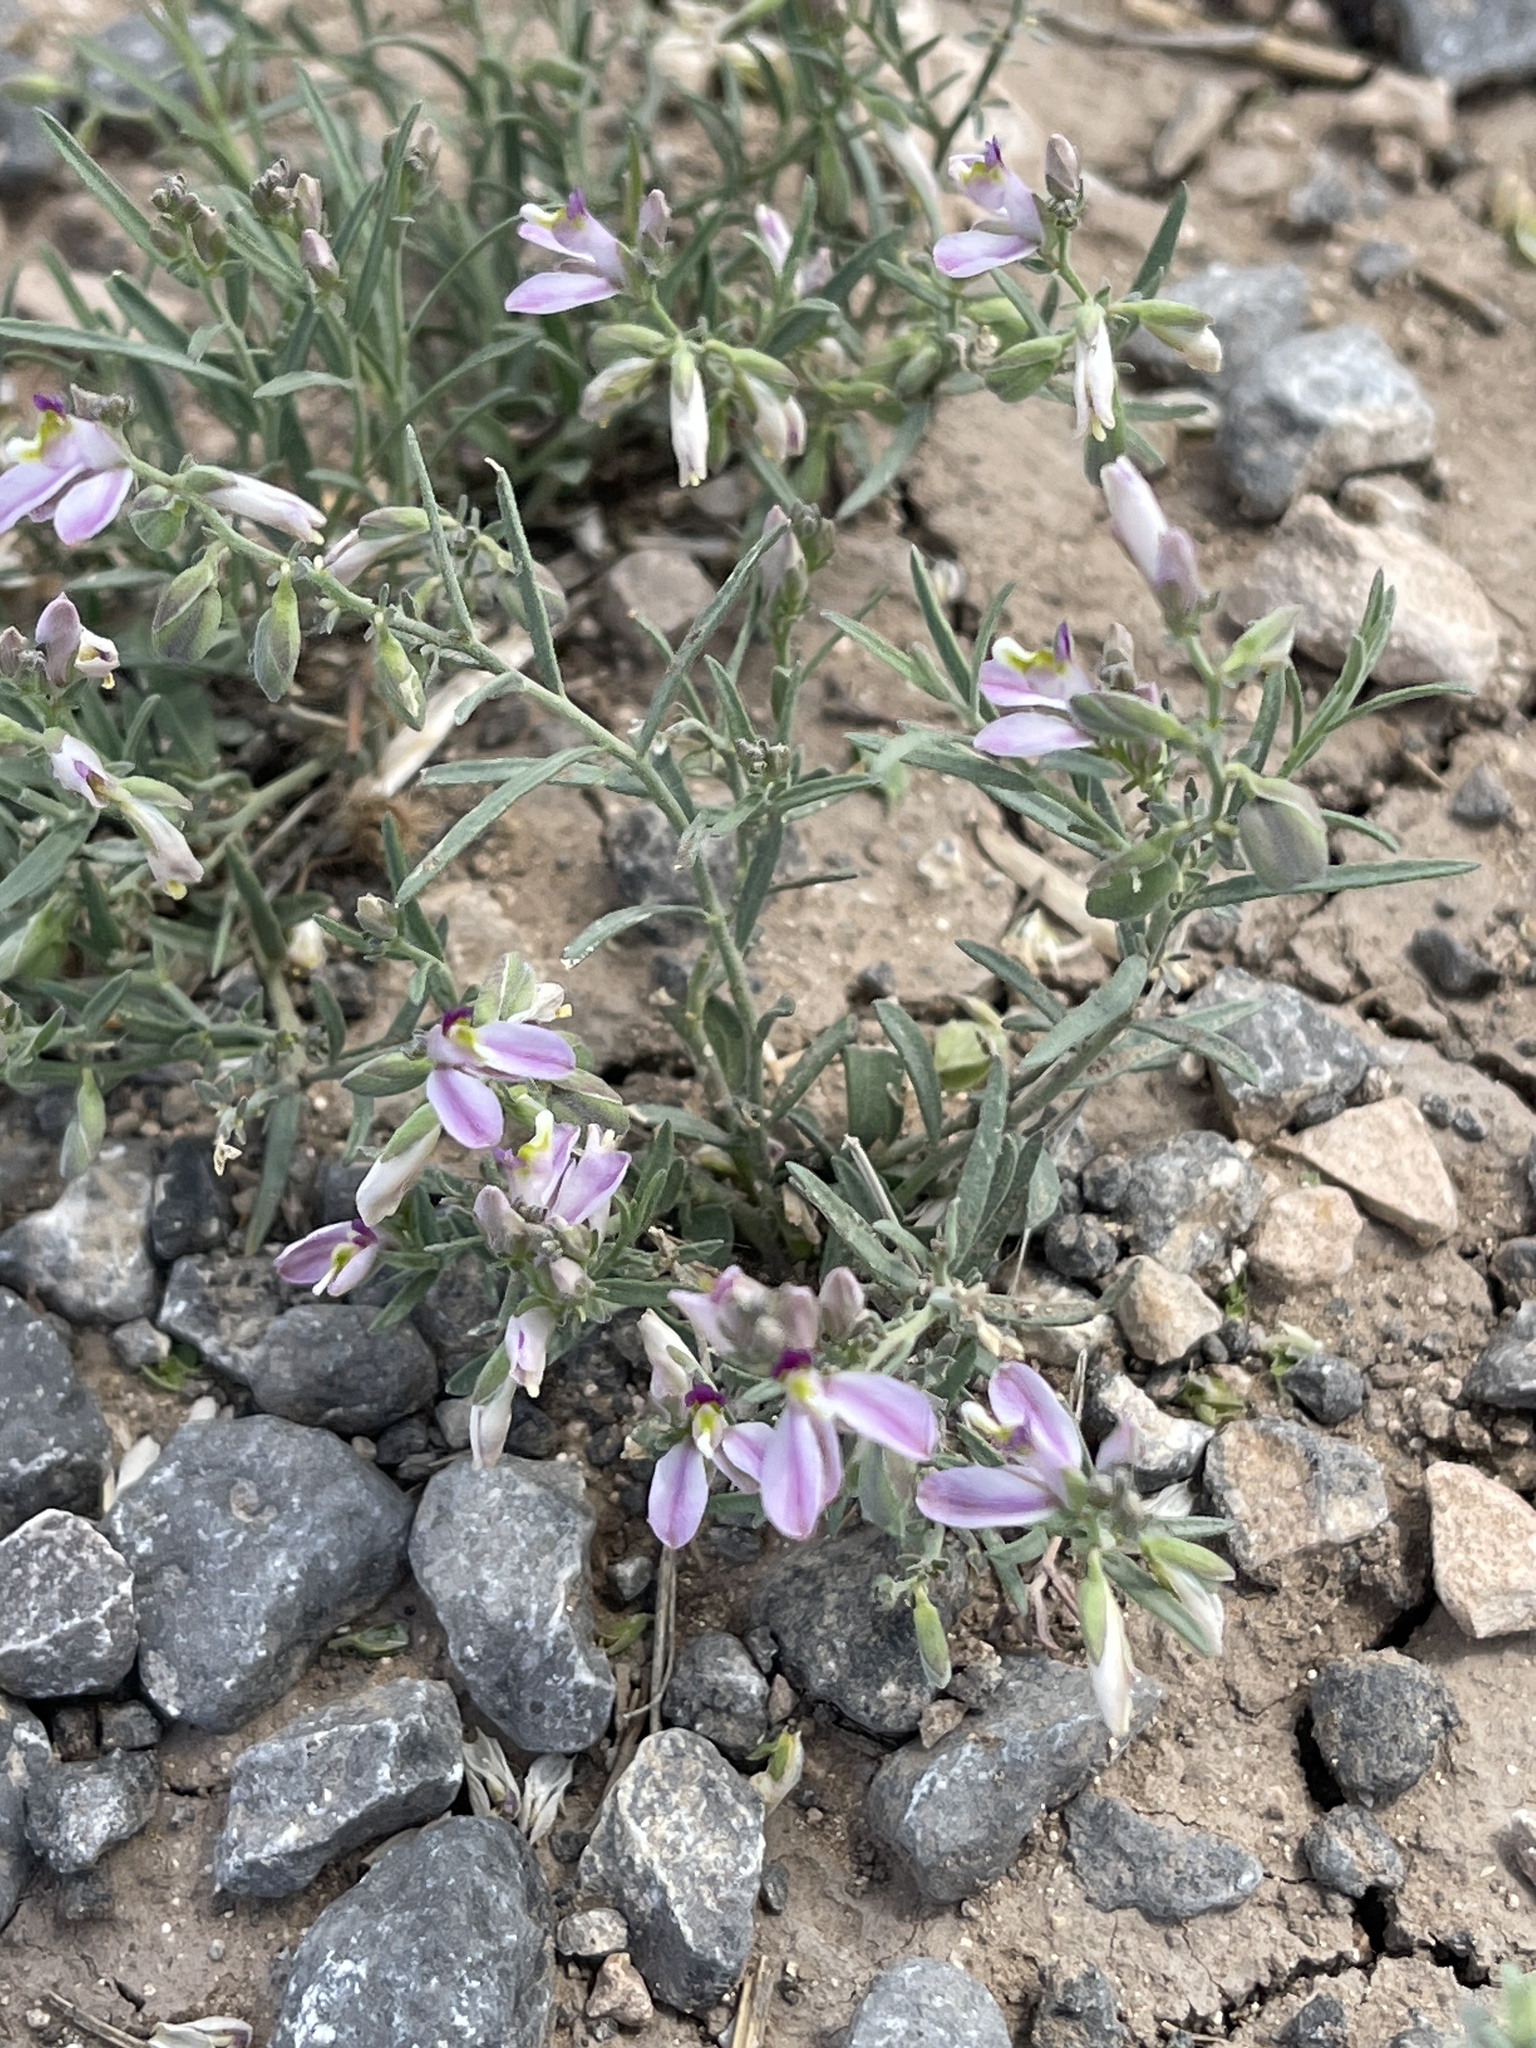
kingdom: Plantae
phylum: Tracheophyta
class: Magnoliopsida
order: Fabales
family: Polygalaceae
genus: Rhinotropis
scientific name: Rhinotropis lindheimeri
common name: Shrubby milkwort
